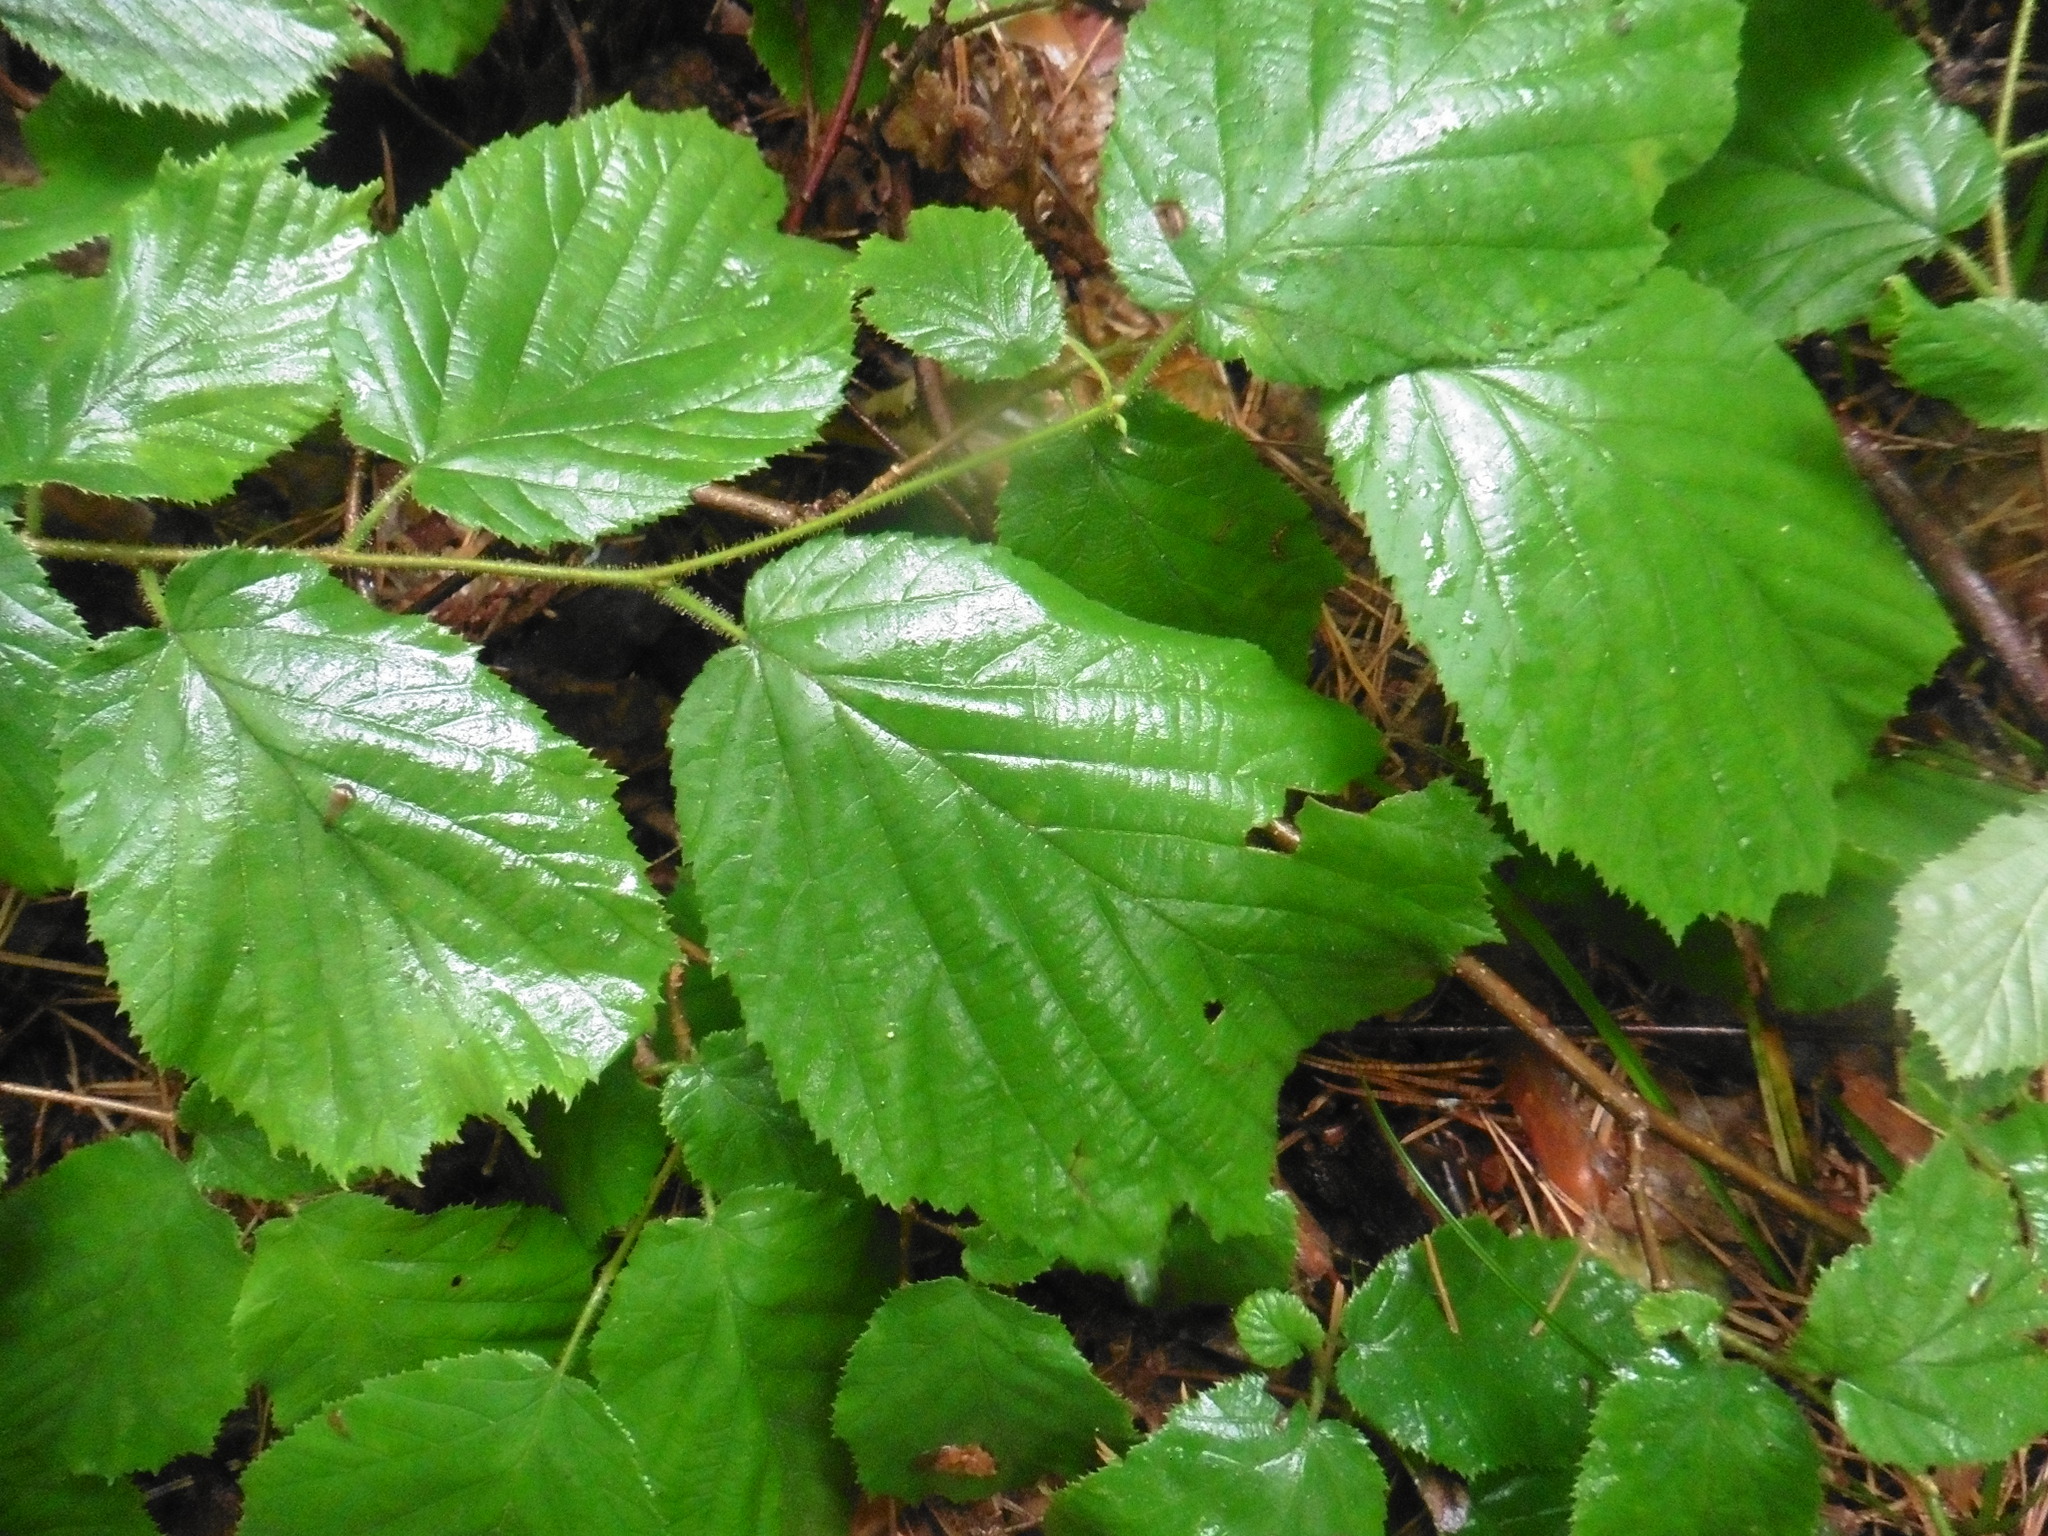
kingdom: Plantae
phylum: Tracheophyta
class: Magnoliopsida
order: Fagales
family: Betulaceae
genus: Corylus
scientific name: Corylus avellana
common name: European hazel
